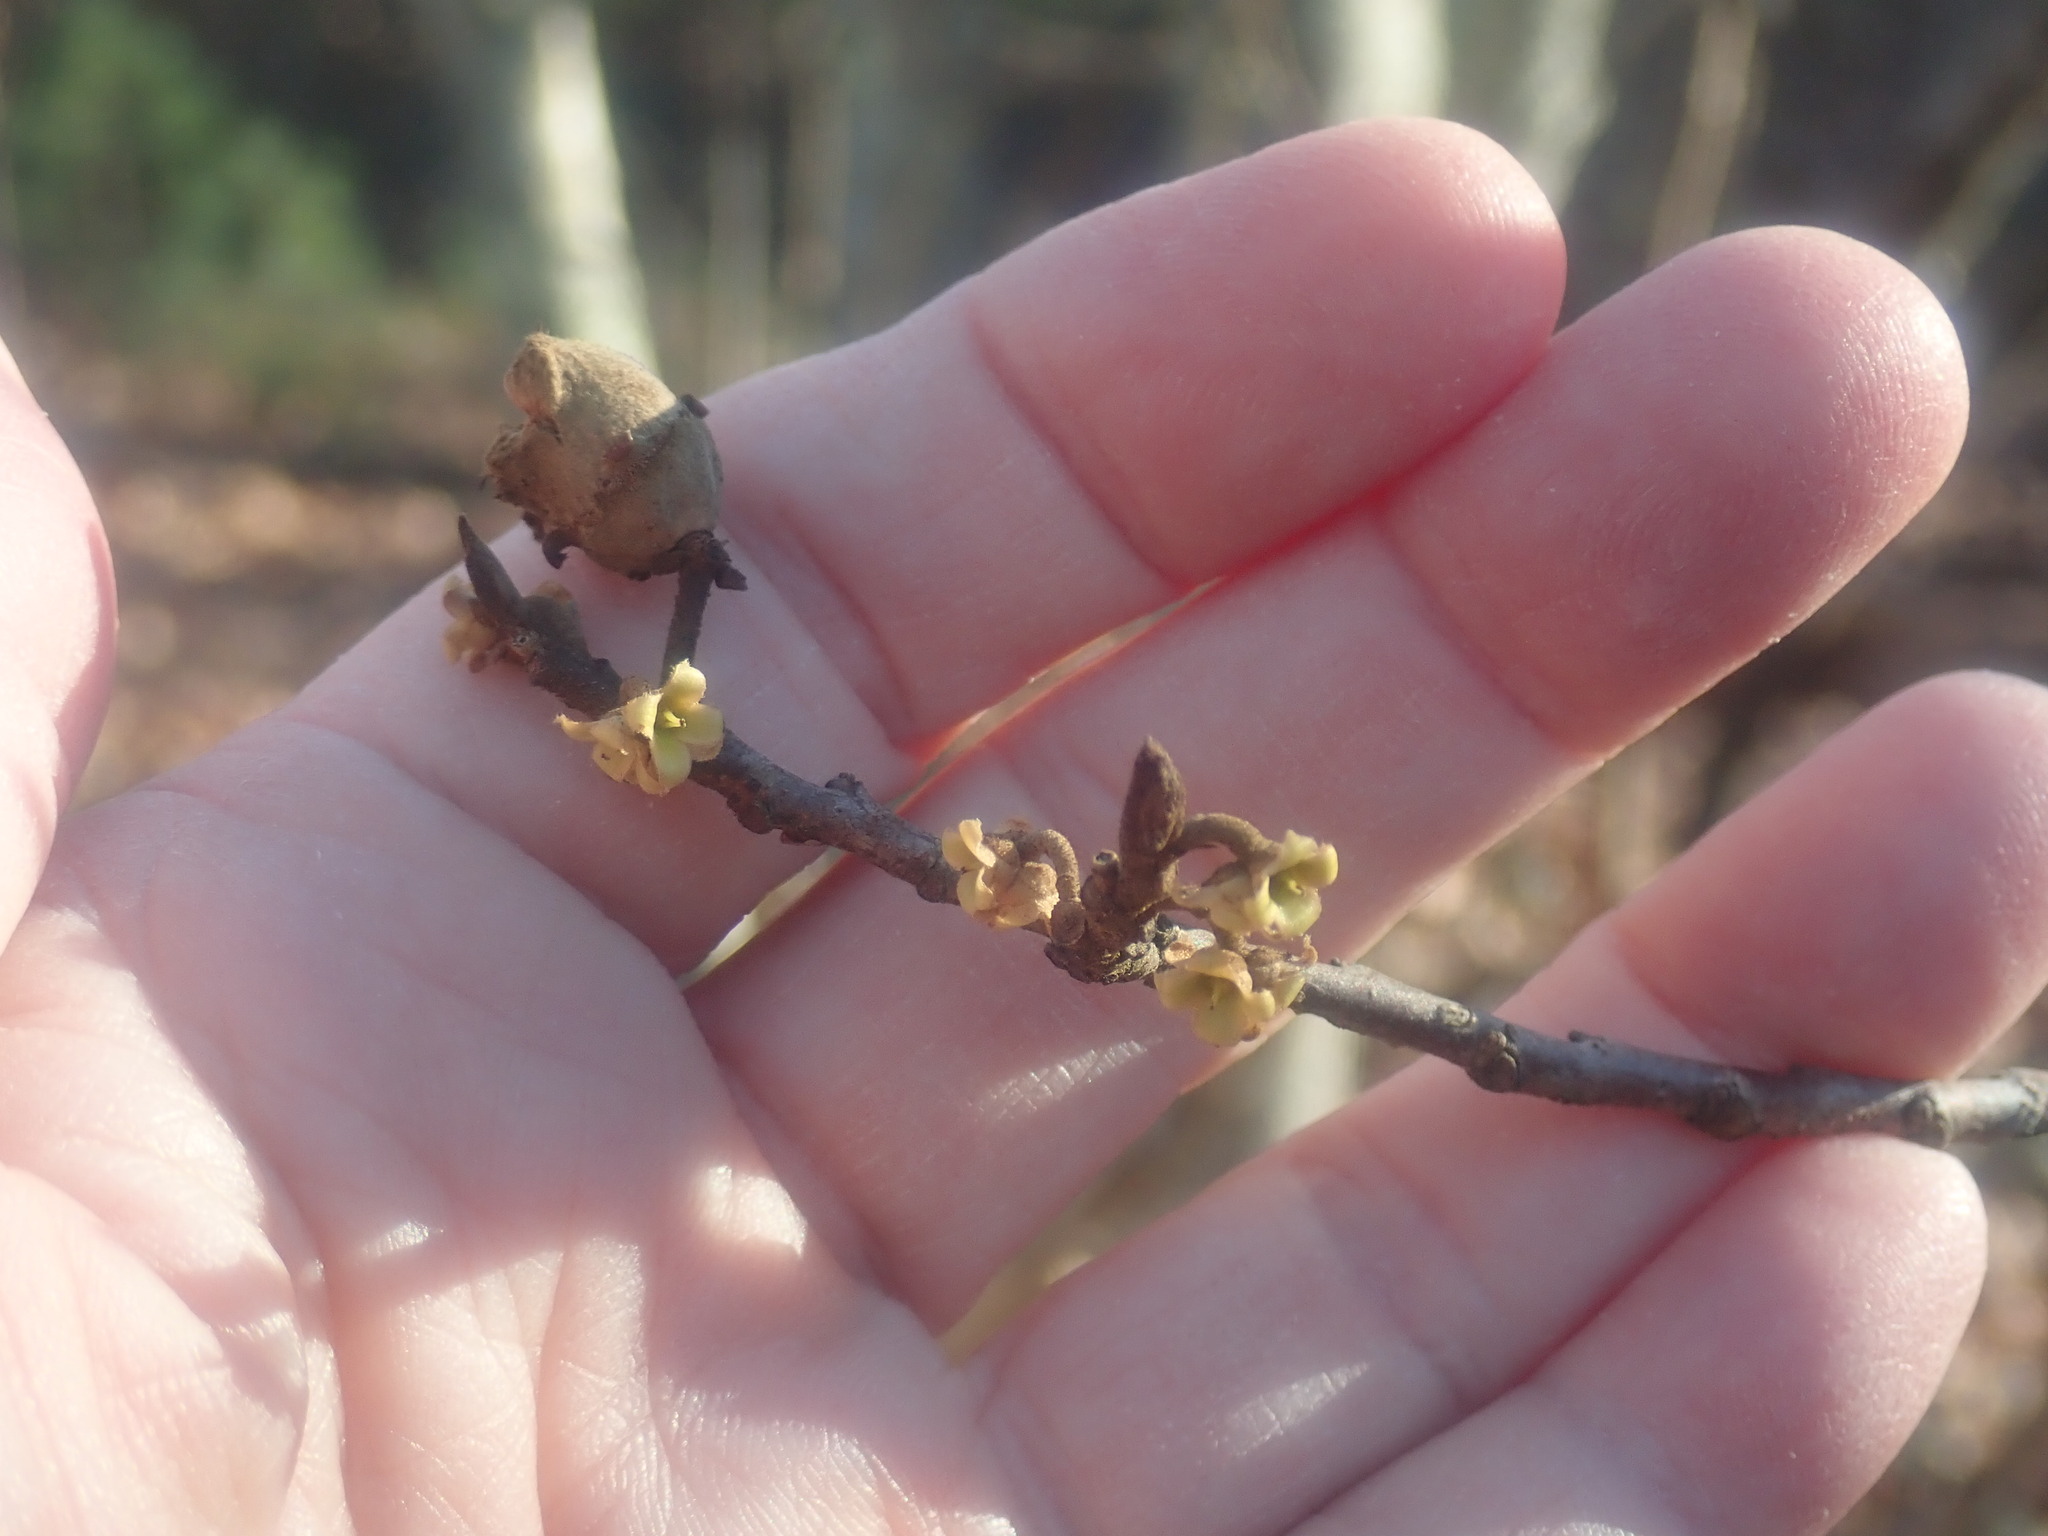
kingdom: Plantae
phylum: Tracheophyta
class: Magnoliopsida
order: Saxifragales
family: Hamamelidaceae
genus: Hamamelis
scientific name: Hamamelis virginiana
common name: Witch-hazel
